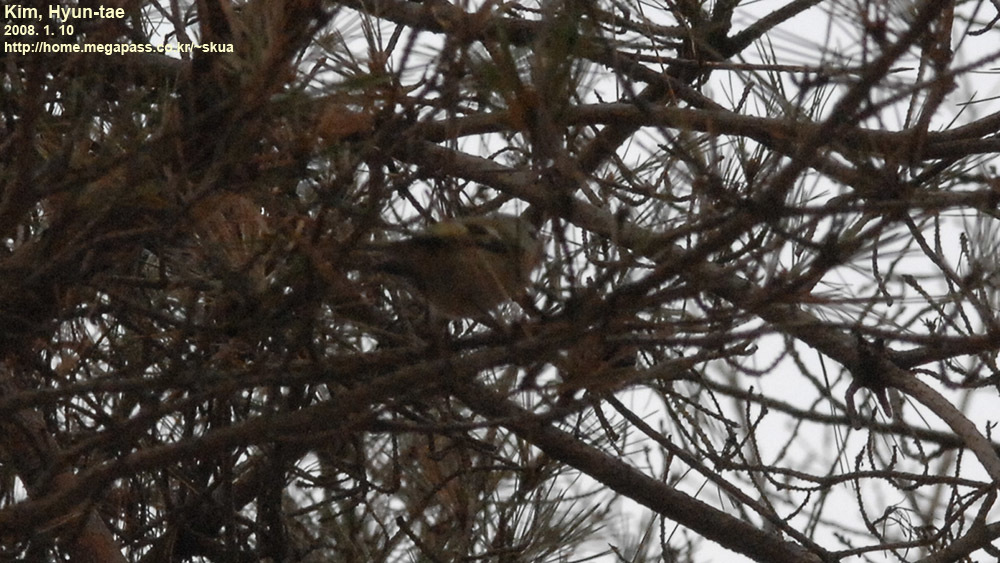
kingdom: Plantae
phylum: Tracheophyta
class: Liliopsida
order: Poales
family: Poaceae
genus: Chloris
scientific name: Chloris sinica
